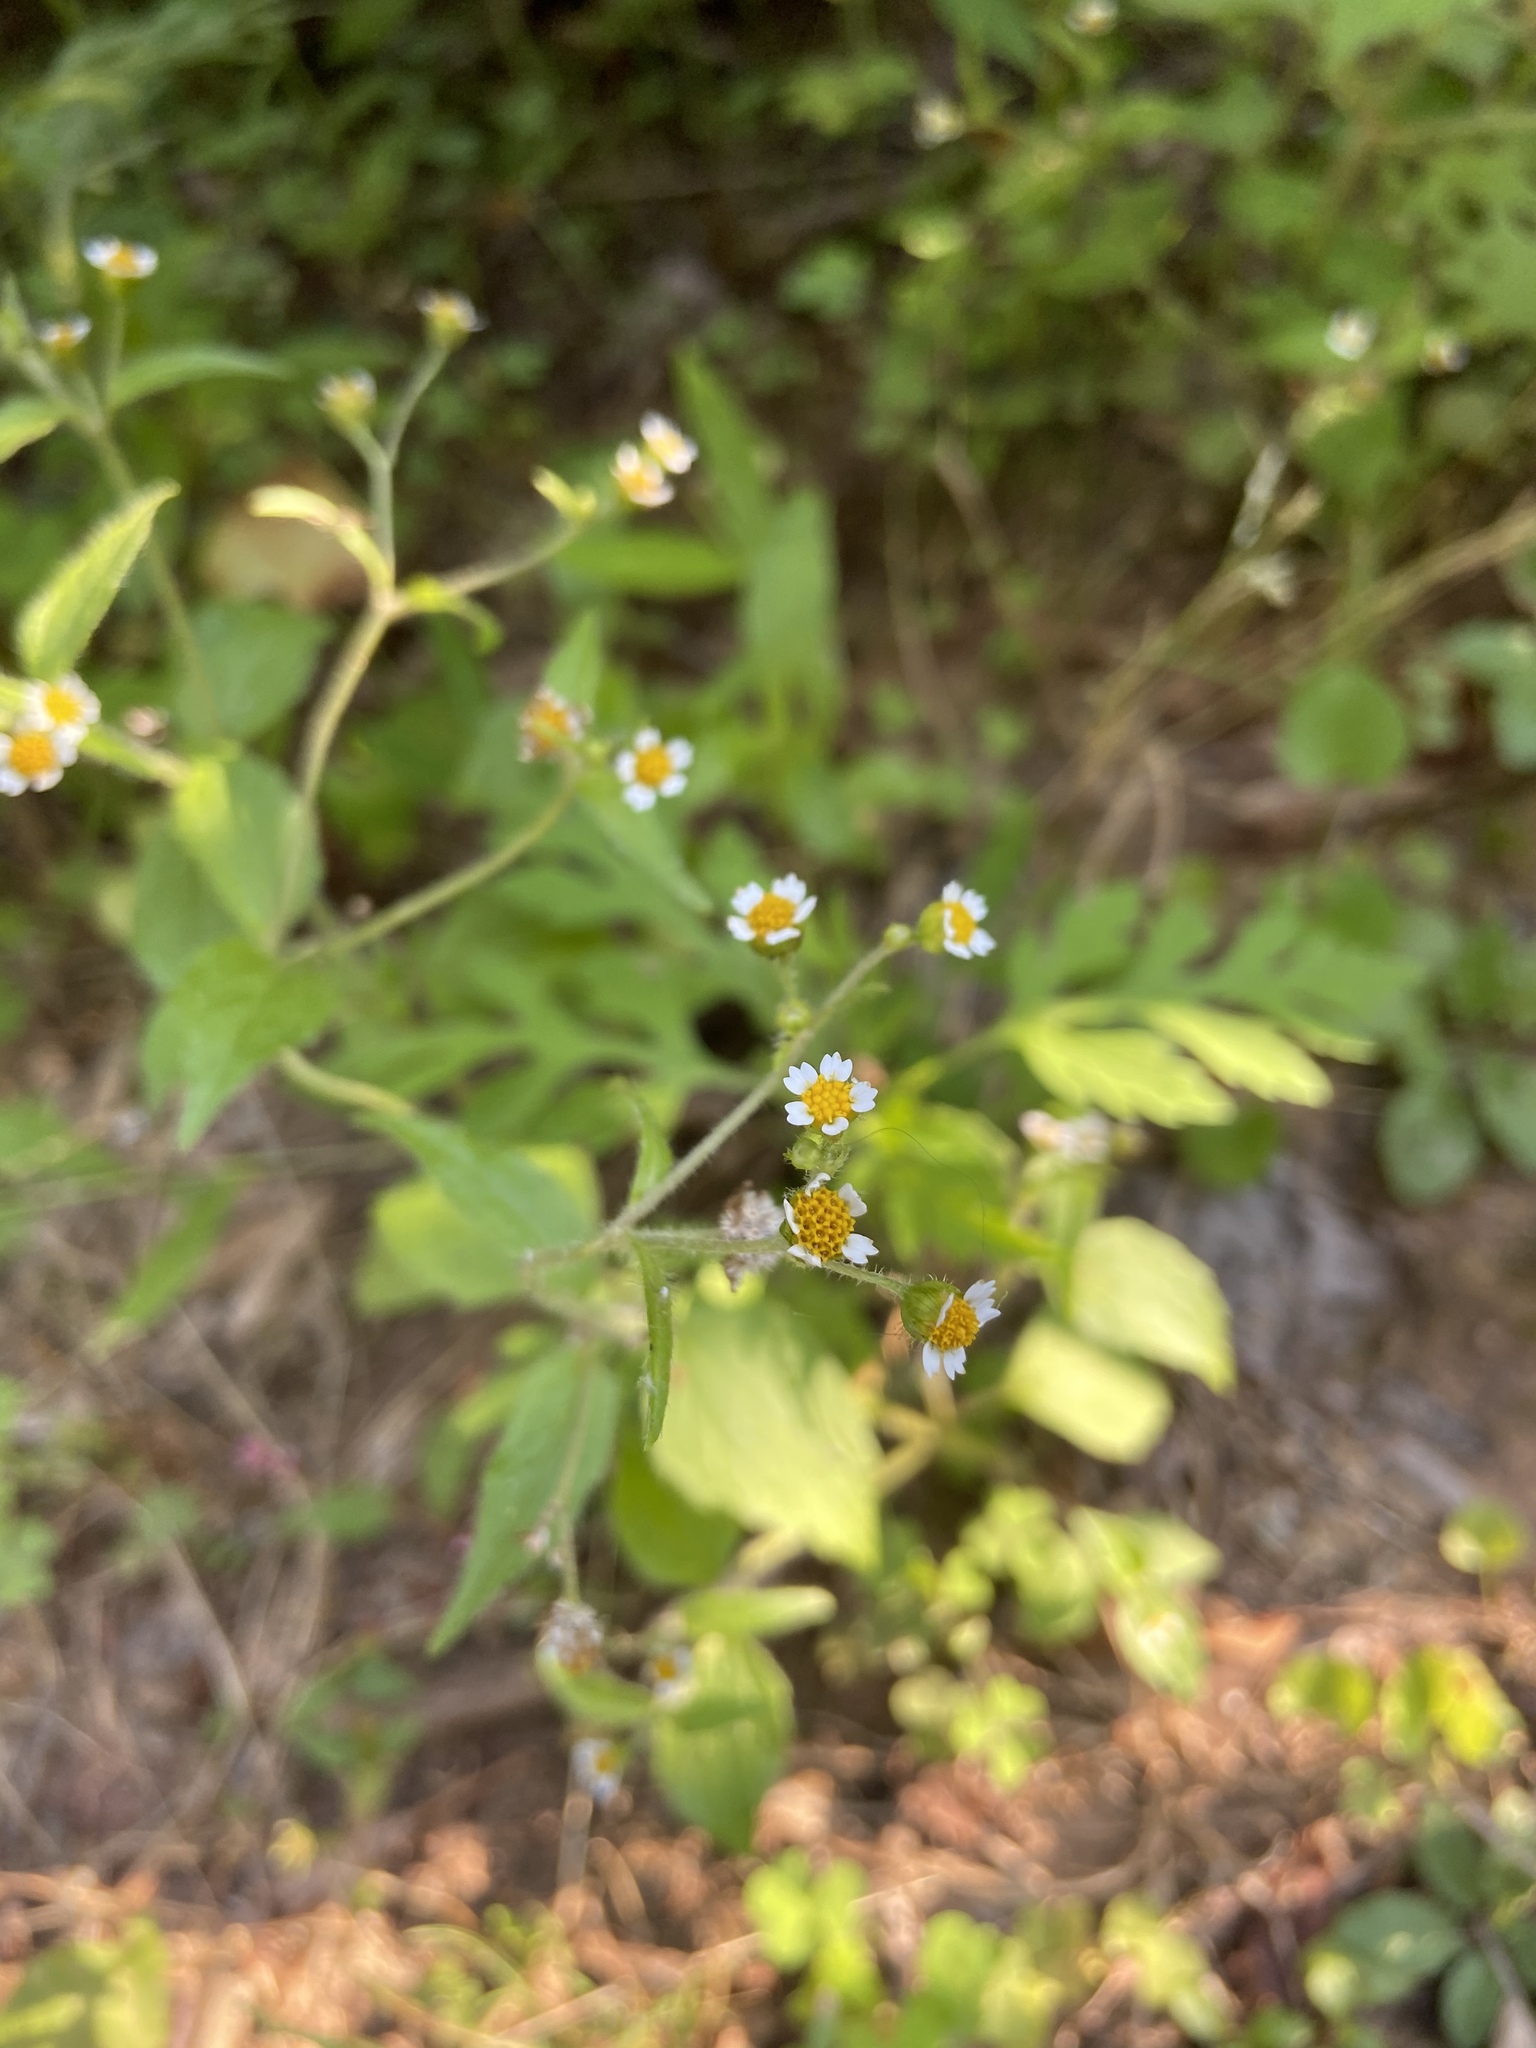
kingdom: Plantae
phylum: Tracheophyta
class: Magnoliopsida
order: Asterales
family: Asteraceae
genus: Galinsoga
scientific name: Galinsoga quadriradiata
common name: Shaggy soldier
